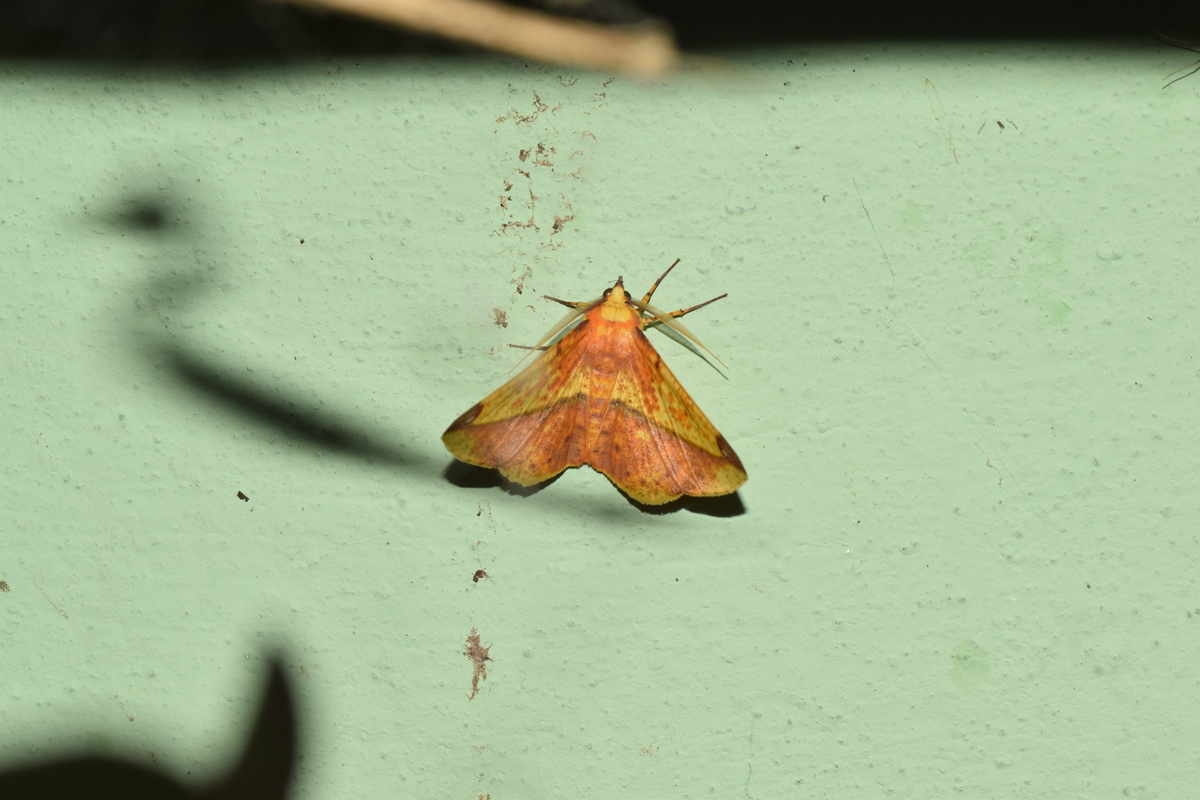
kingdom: Animalia
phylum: Arthropoda
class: Insecta
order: Lepidoptera
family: Geometridae
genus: Mimomiza
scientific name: Mimomiza cruentaria
